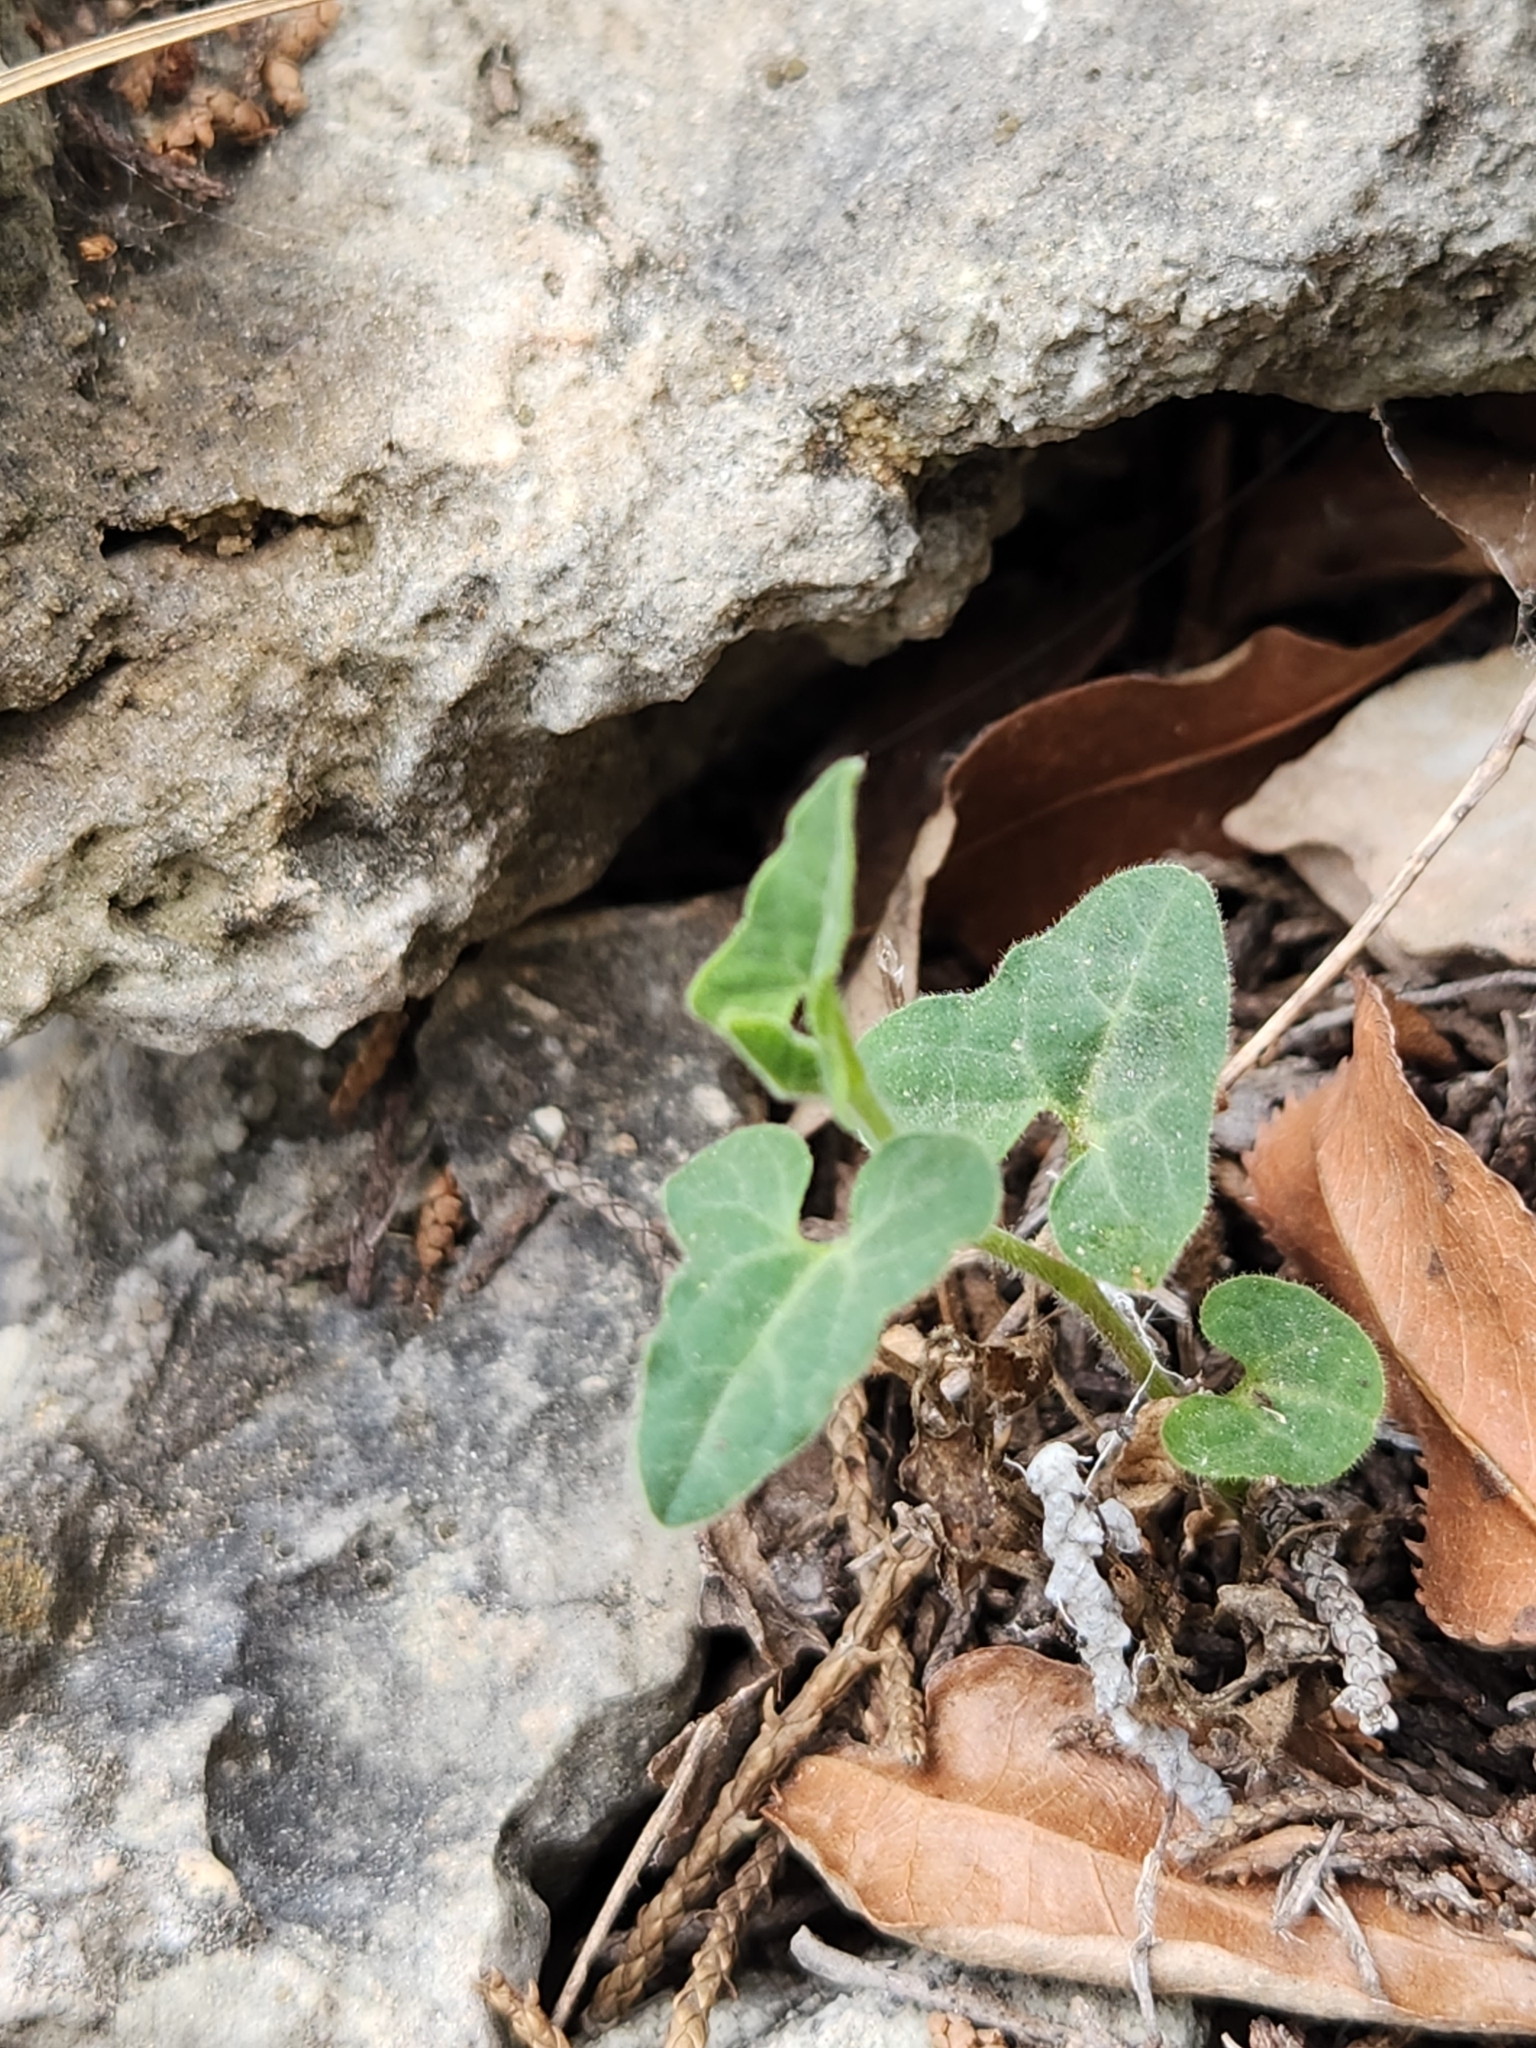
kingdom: Plantae
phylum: Tracheophyta
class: Magnoliopsida
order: Piperales
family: Aristolochiaceae
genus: Aristolochia
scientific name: Aristolochia coryi
